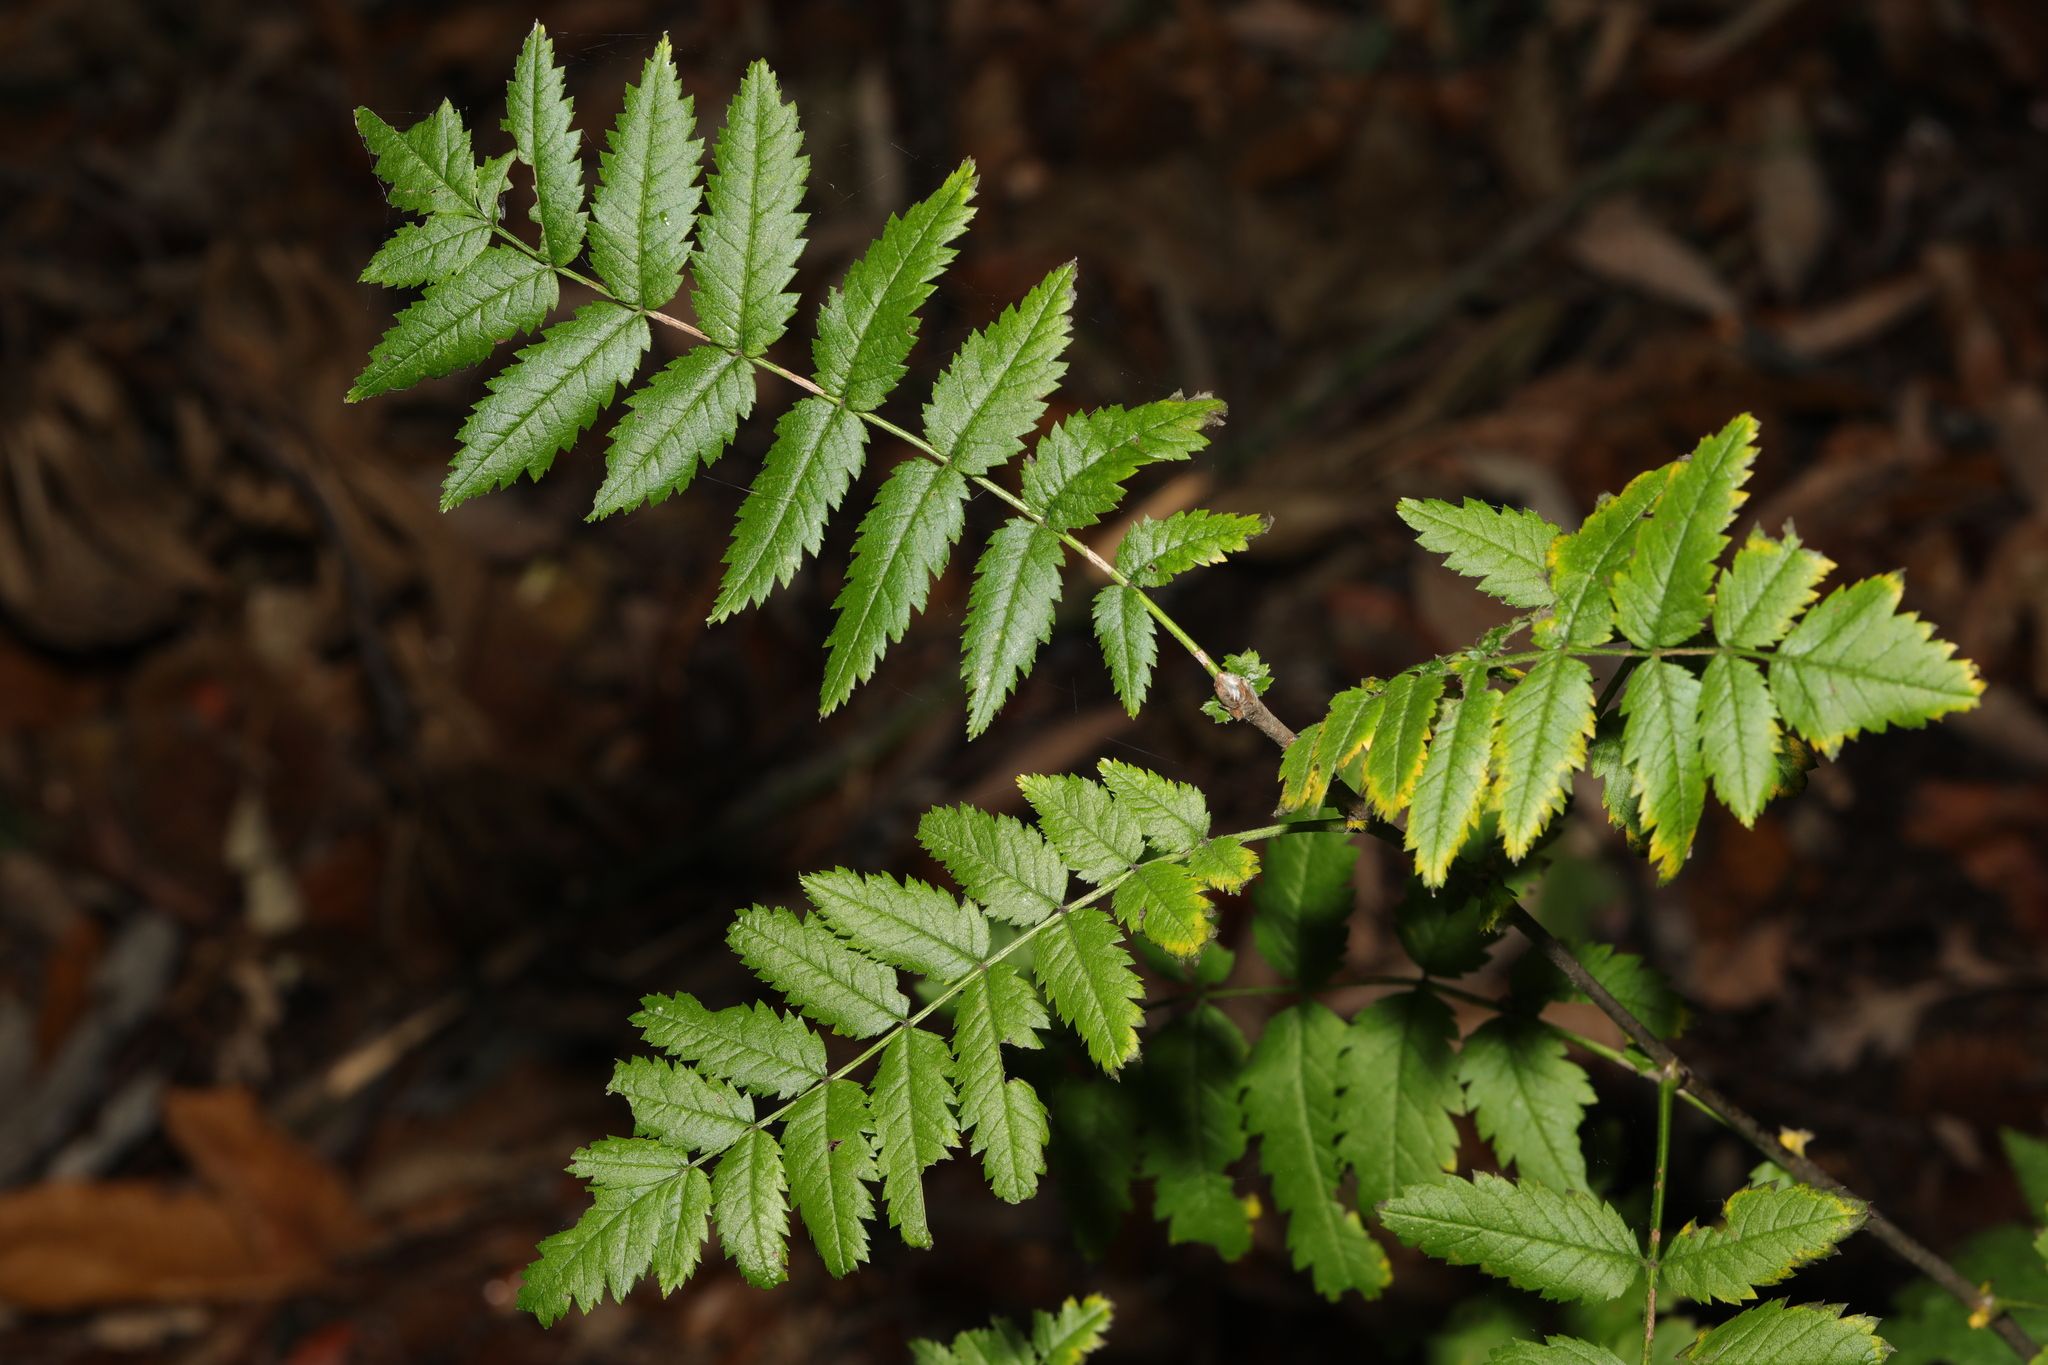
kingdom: Plantae
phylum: Tracheophyta
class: Magnoliopsida
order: Rosales
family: Rosaceae
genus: Sorbus
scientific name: Sorbus aucuparia
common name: Rowan
